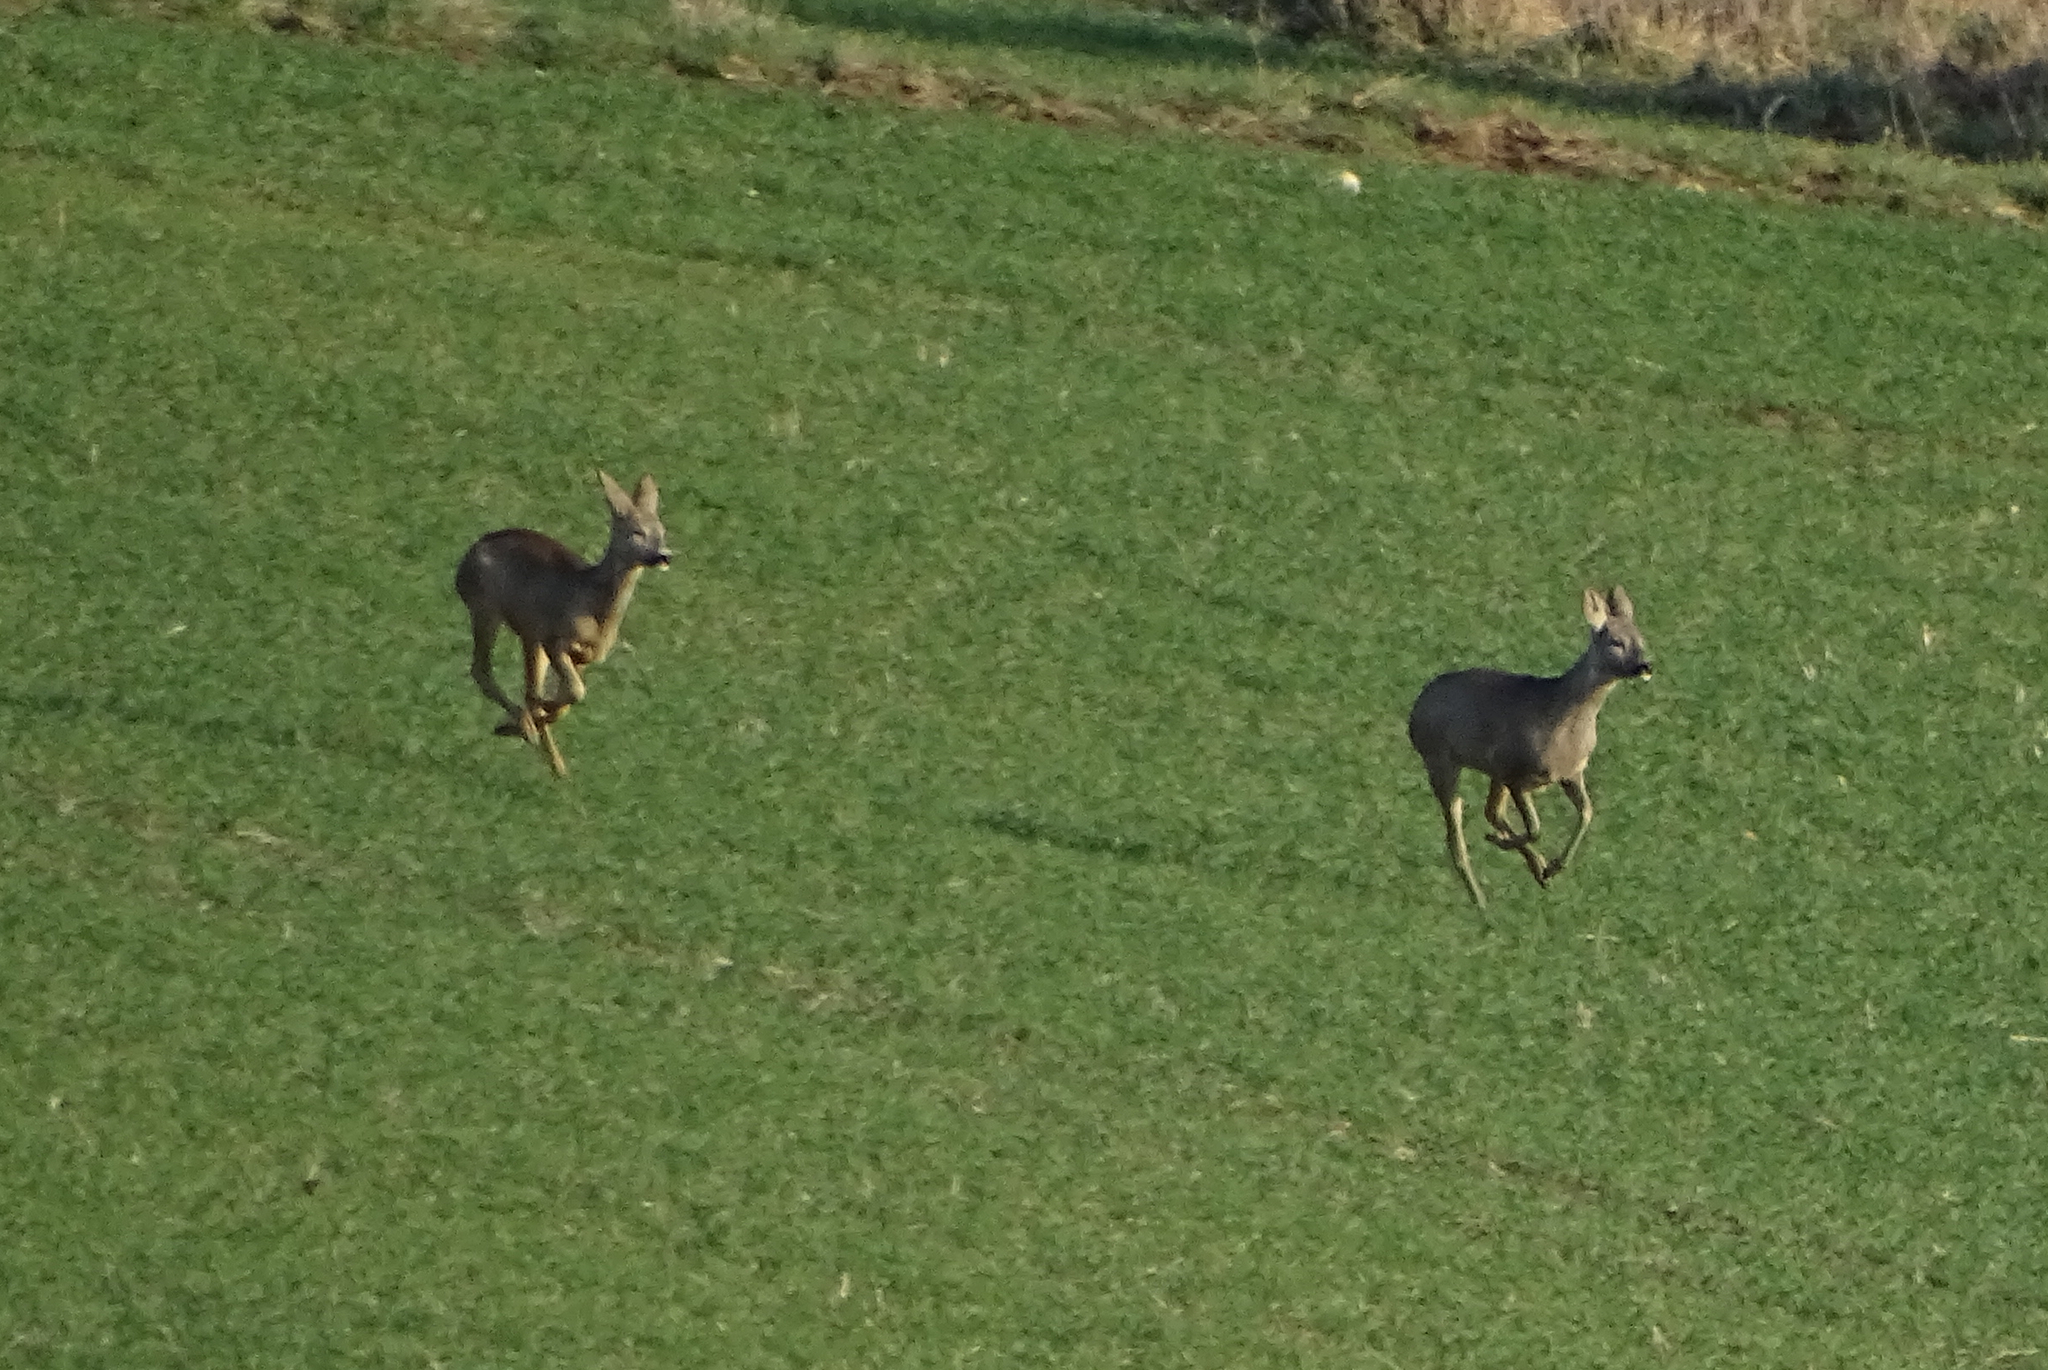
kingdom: Animalia
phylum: Chordata
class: Mammalia
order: Artiodactyla
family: Cervidae
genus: Capreolus
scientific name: Capreolus capreolus
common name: Western roe deer
